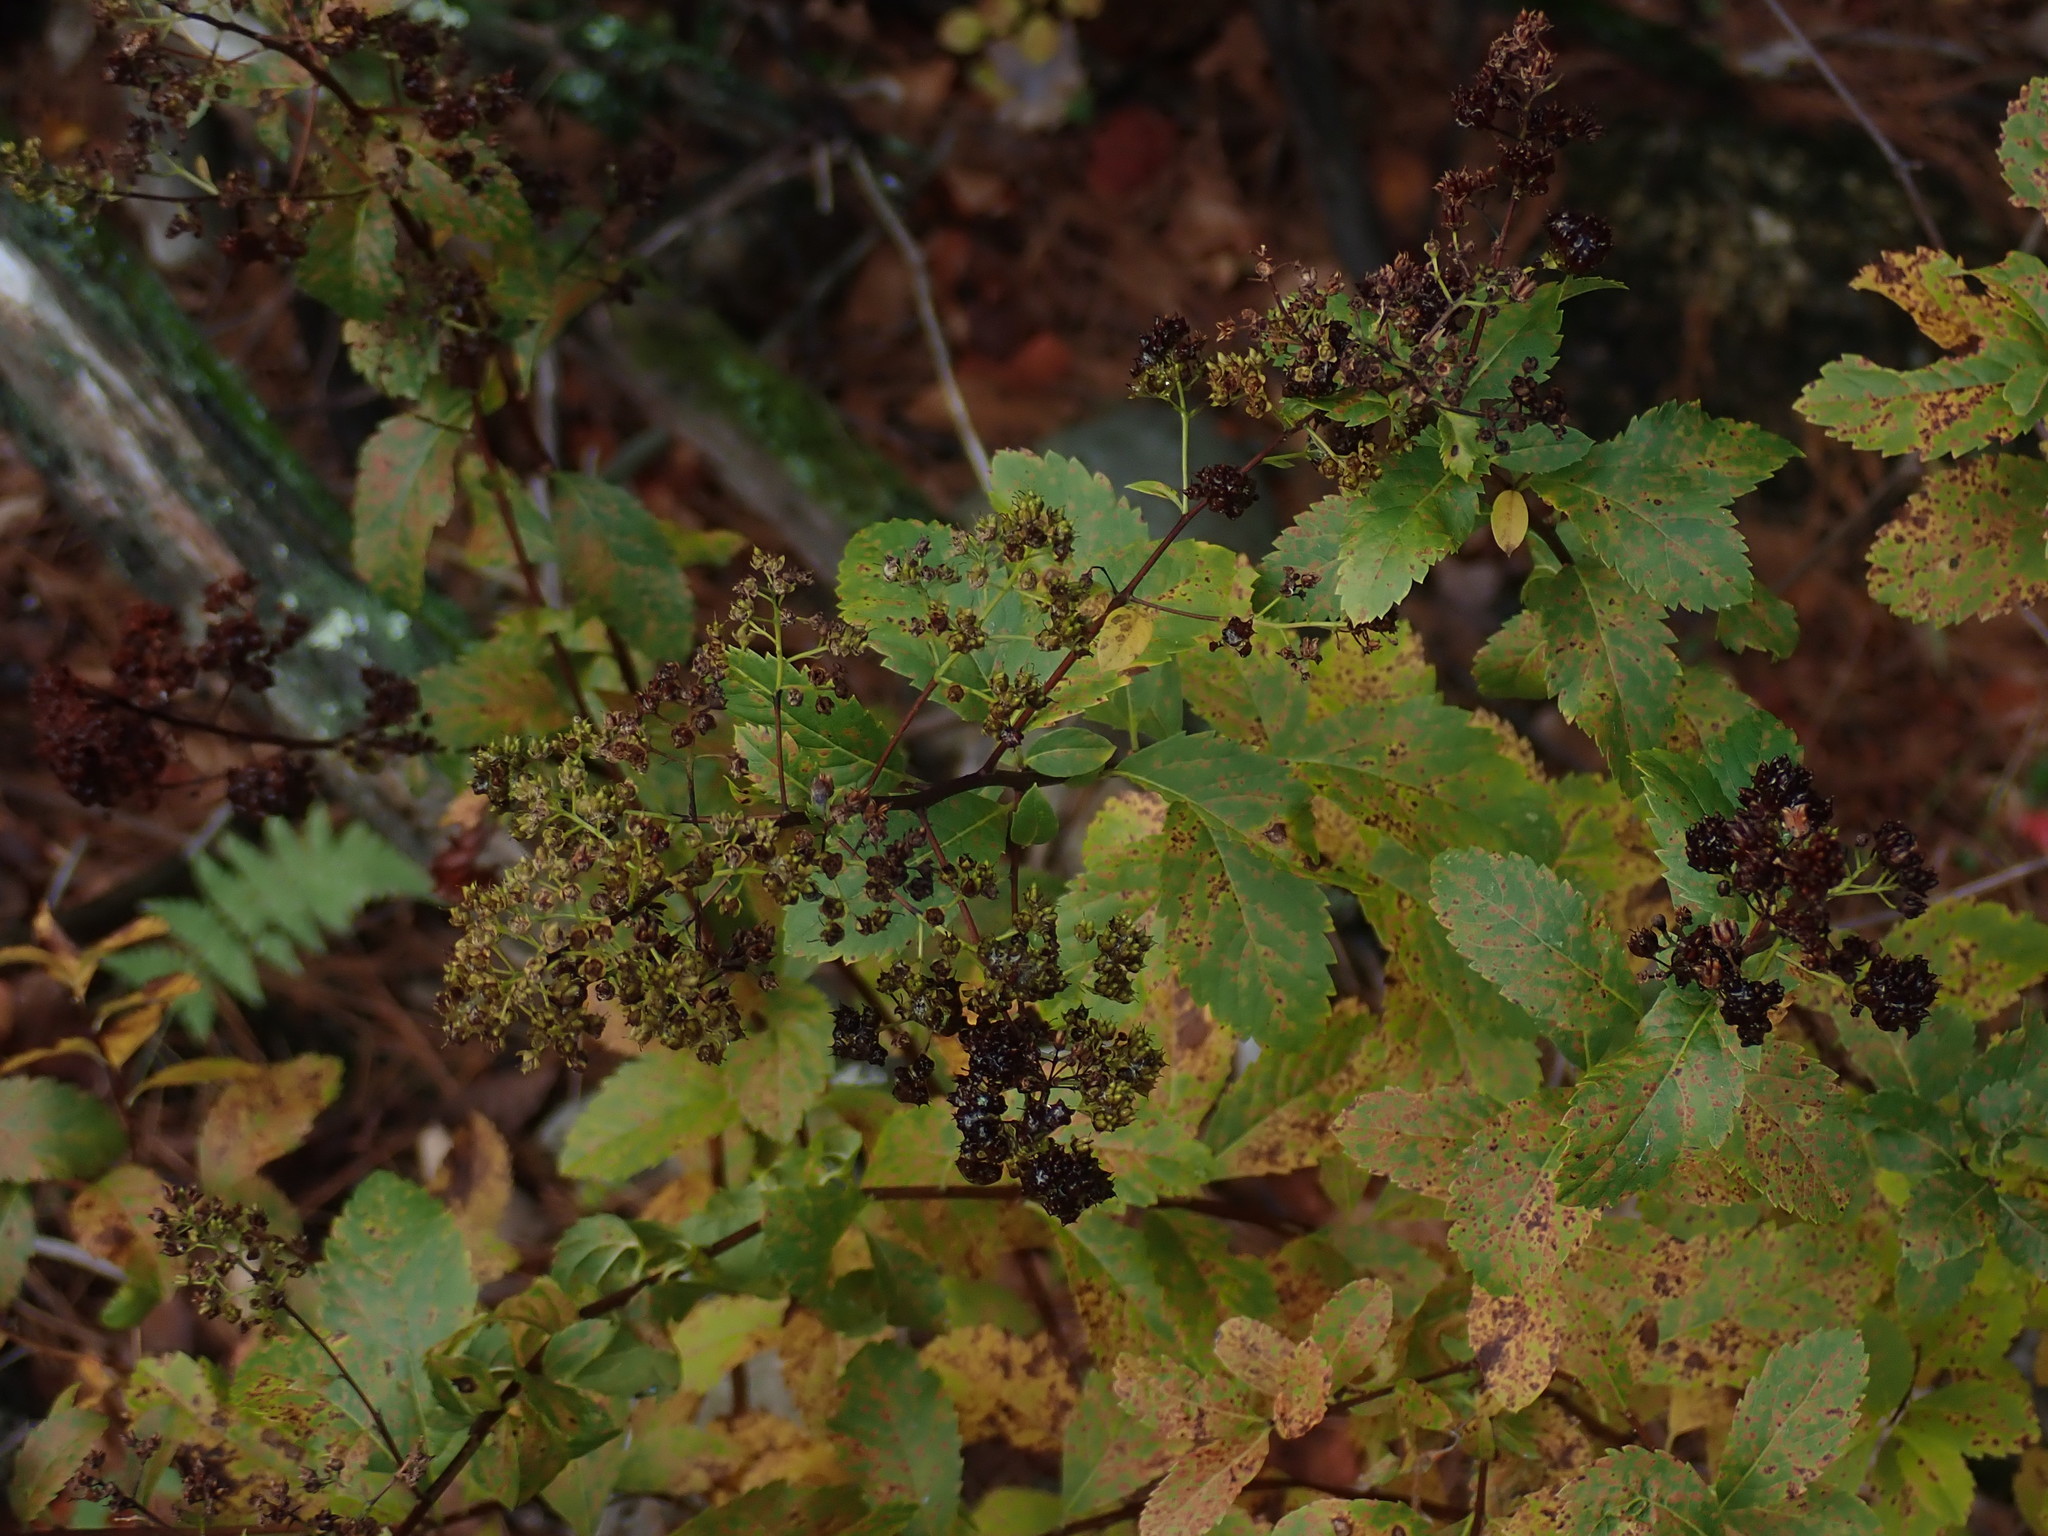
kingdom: Plantae
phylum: Tracheophyta
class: Magnoliopsida
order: Rosales
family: Rosaceae
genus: Spiraea
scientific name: Spiraea alba
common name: Pale bridewort
